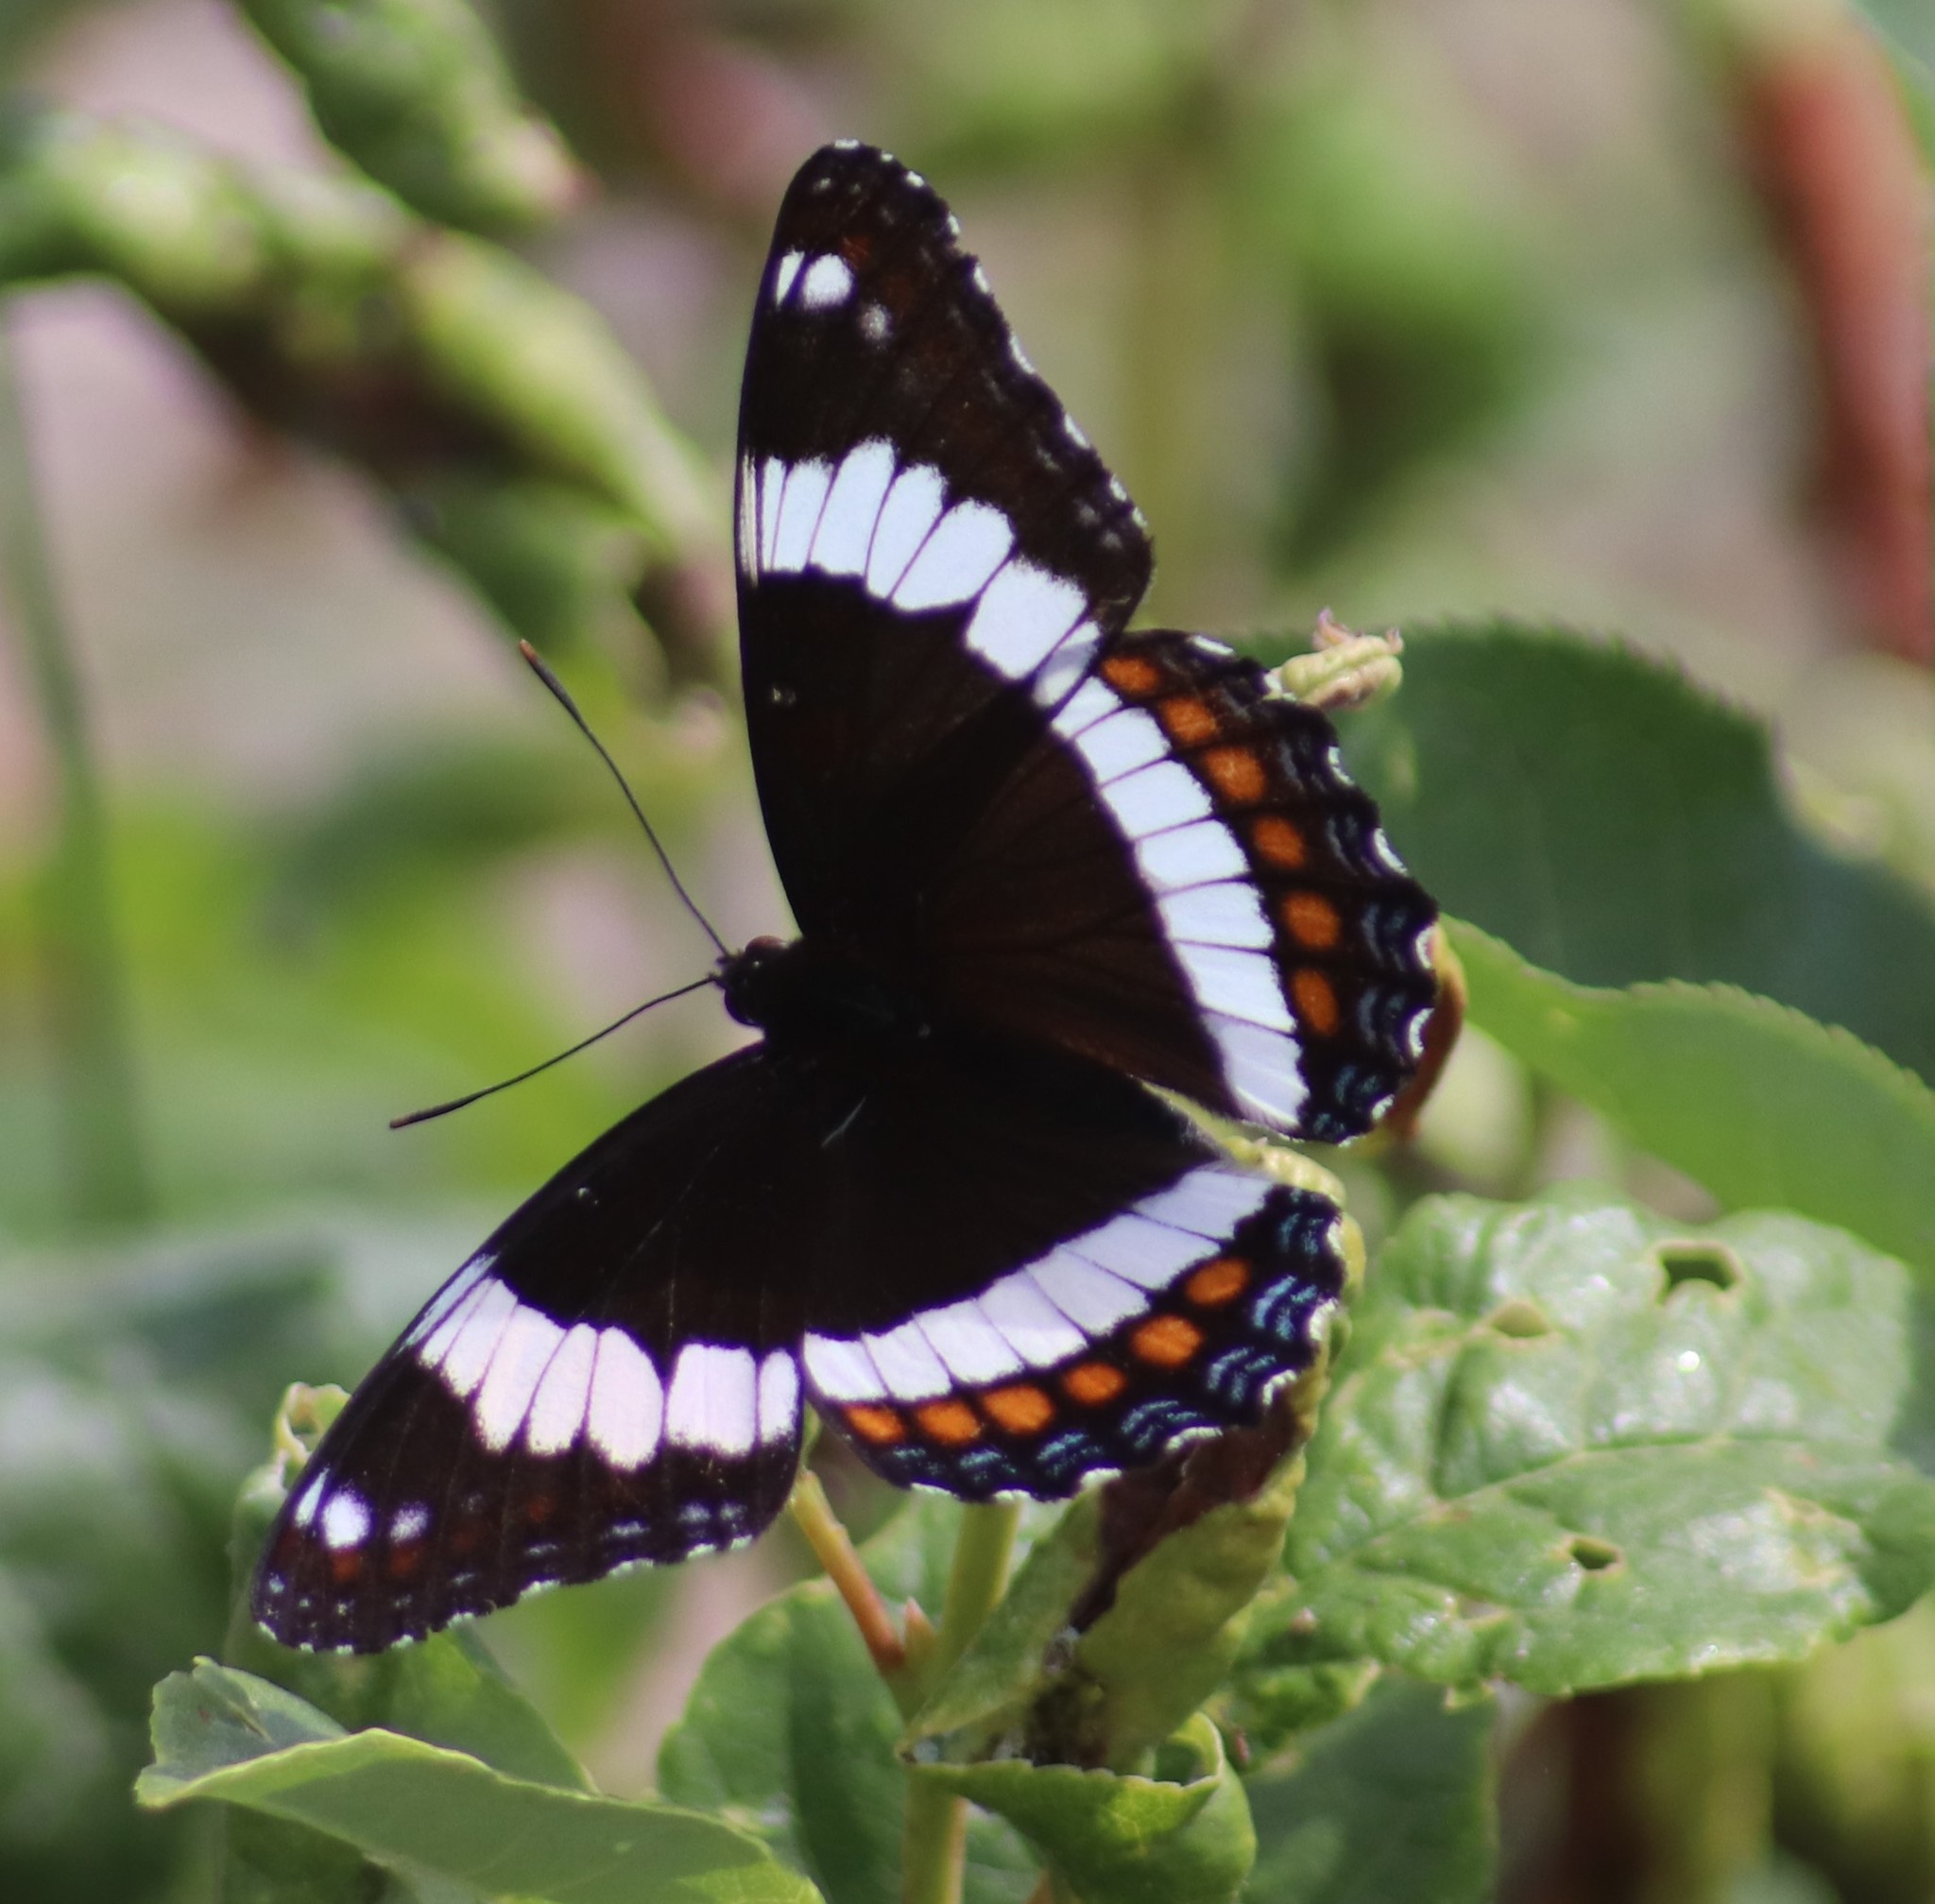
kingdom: Animalia
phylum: Arthropoda
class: Insecta
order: Lepidoptera
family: Nymphalidae
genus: Limenitis
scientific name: Limenitis arthemis
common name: Red-spotted admiral
